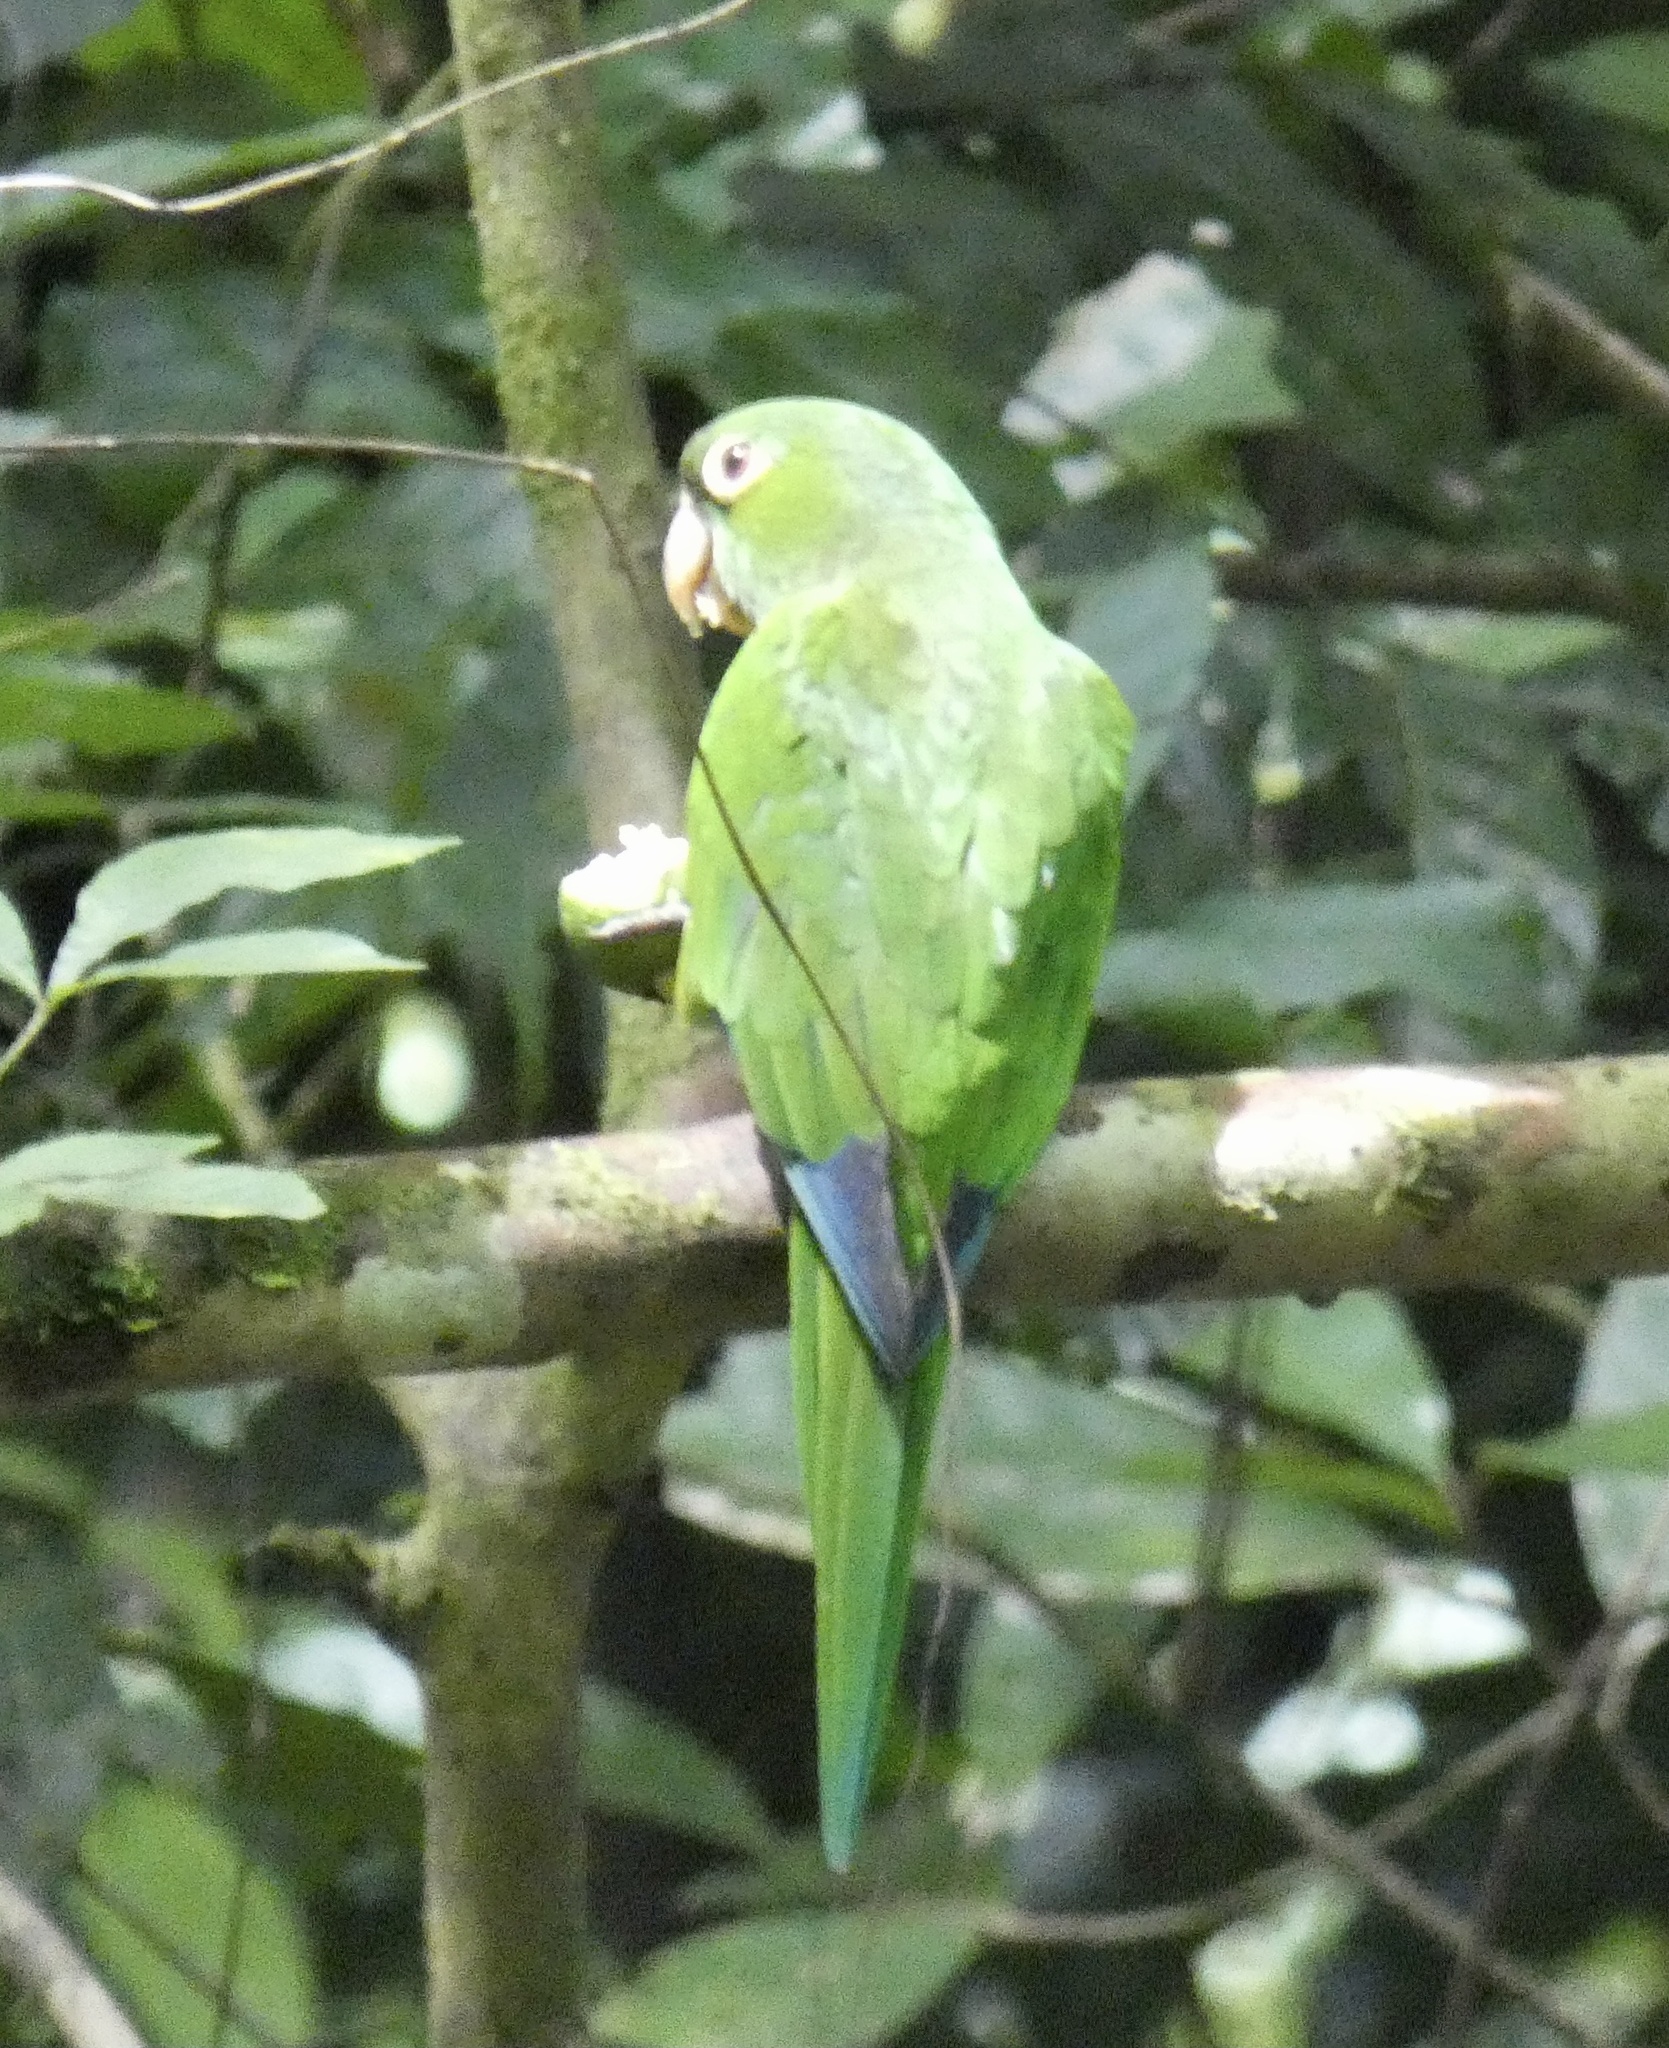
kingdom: Animalia
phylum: Chordata
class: Aves
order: Psittaciformes
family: Psittacidae
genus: Aratinga
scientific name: Aratinga nana
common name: Olive-throated parakeet
